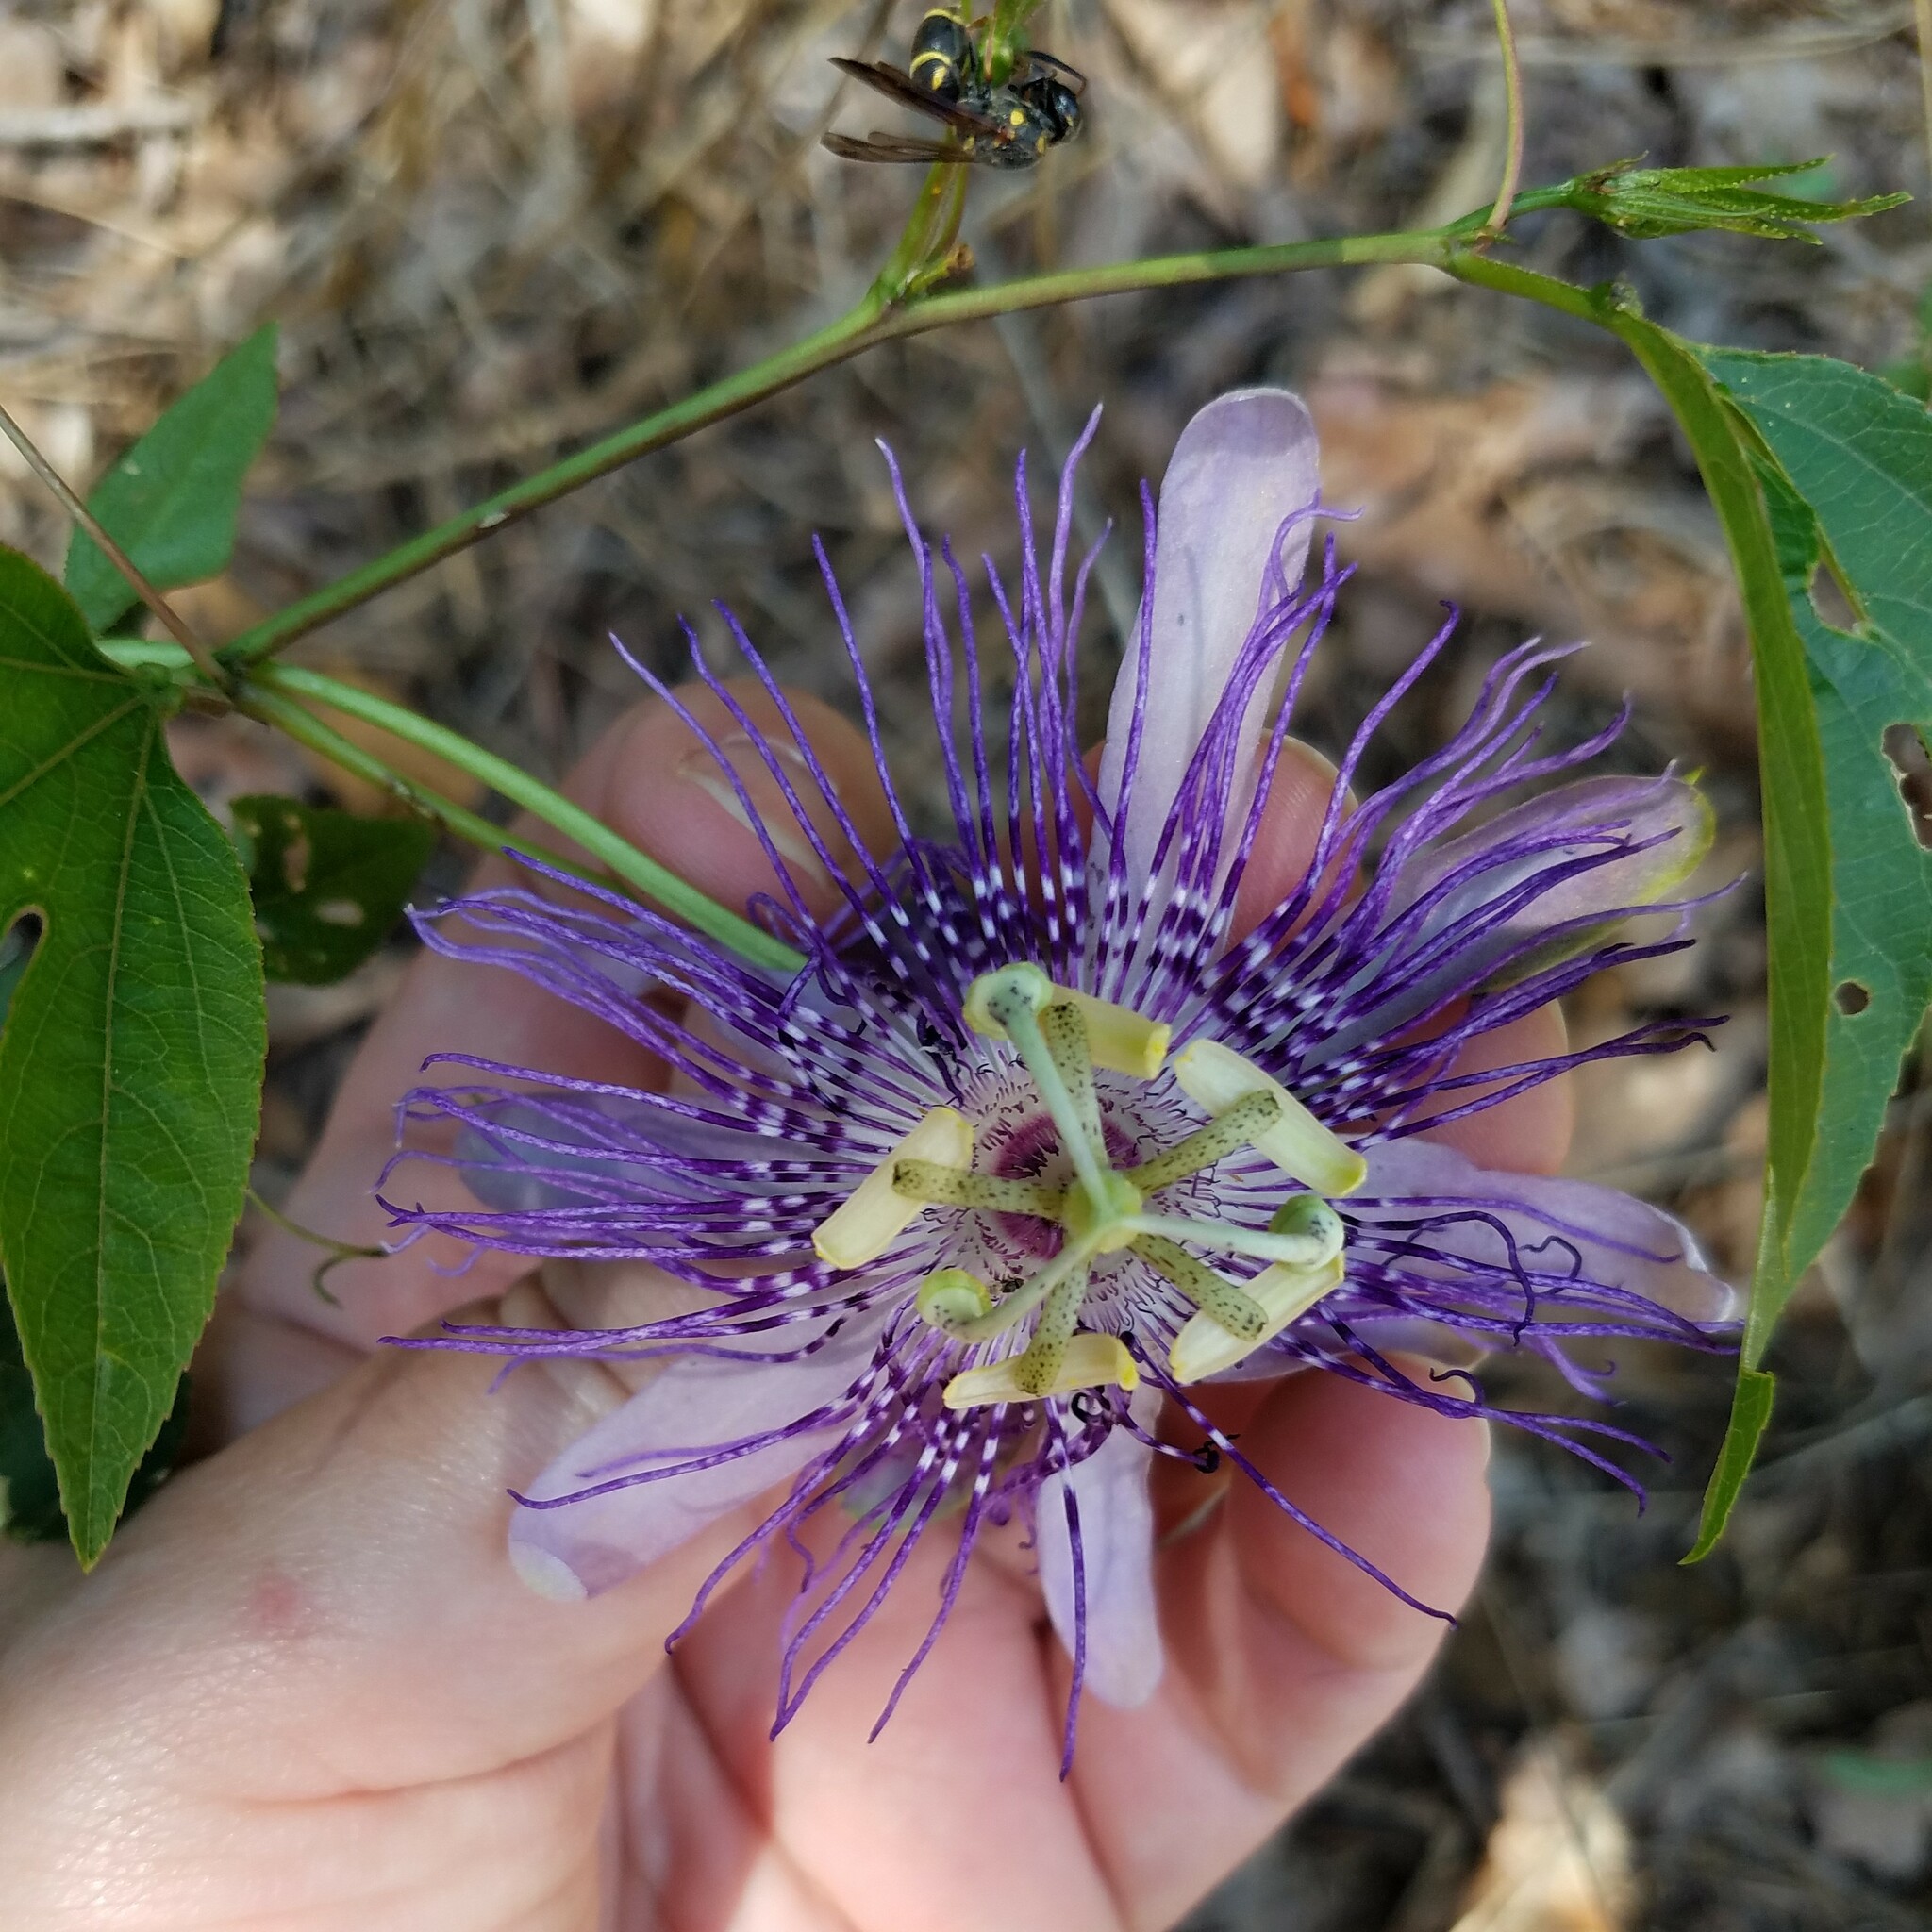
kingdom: Plantae
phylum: Tracheophyta
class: Magnoliopsida
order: Malpighiales
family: Passifloraceae
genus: Passiflora
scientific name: Passiflora incarnata
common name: Apricot-vine
